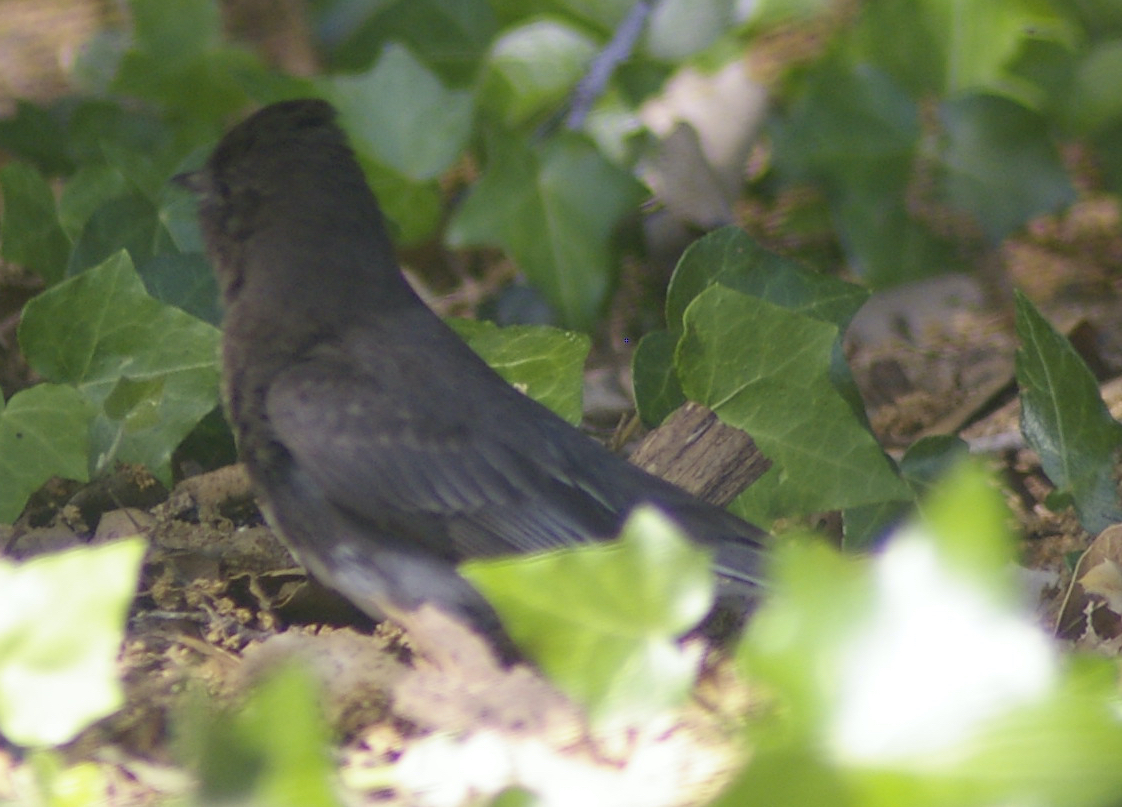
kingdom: Animalia
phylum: Chordata
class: Aves
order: Passeriformes
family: Tyrannidae
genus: Sayornis
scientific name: Sayornis nigricans
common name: Black phoebe
